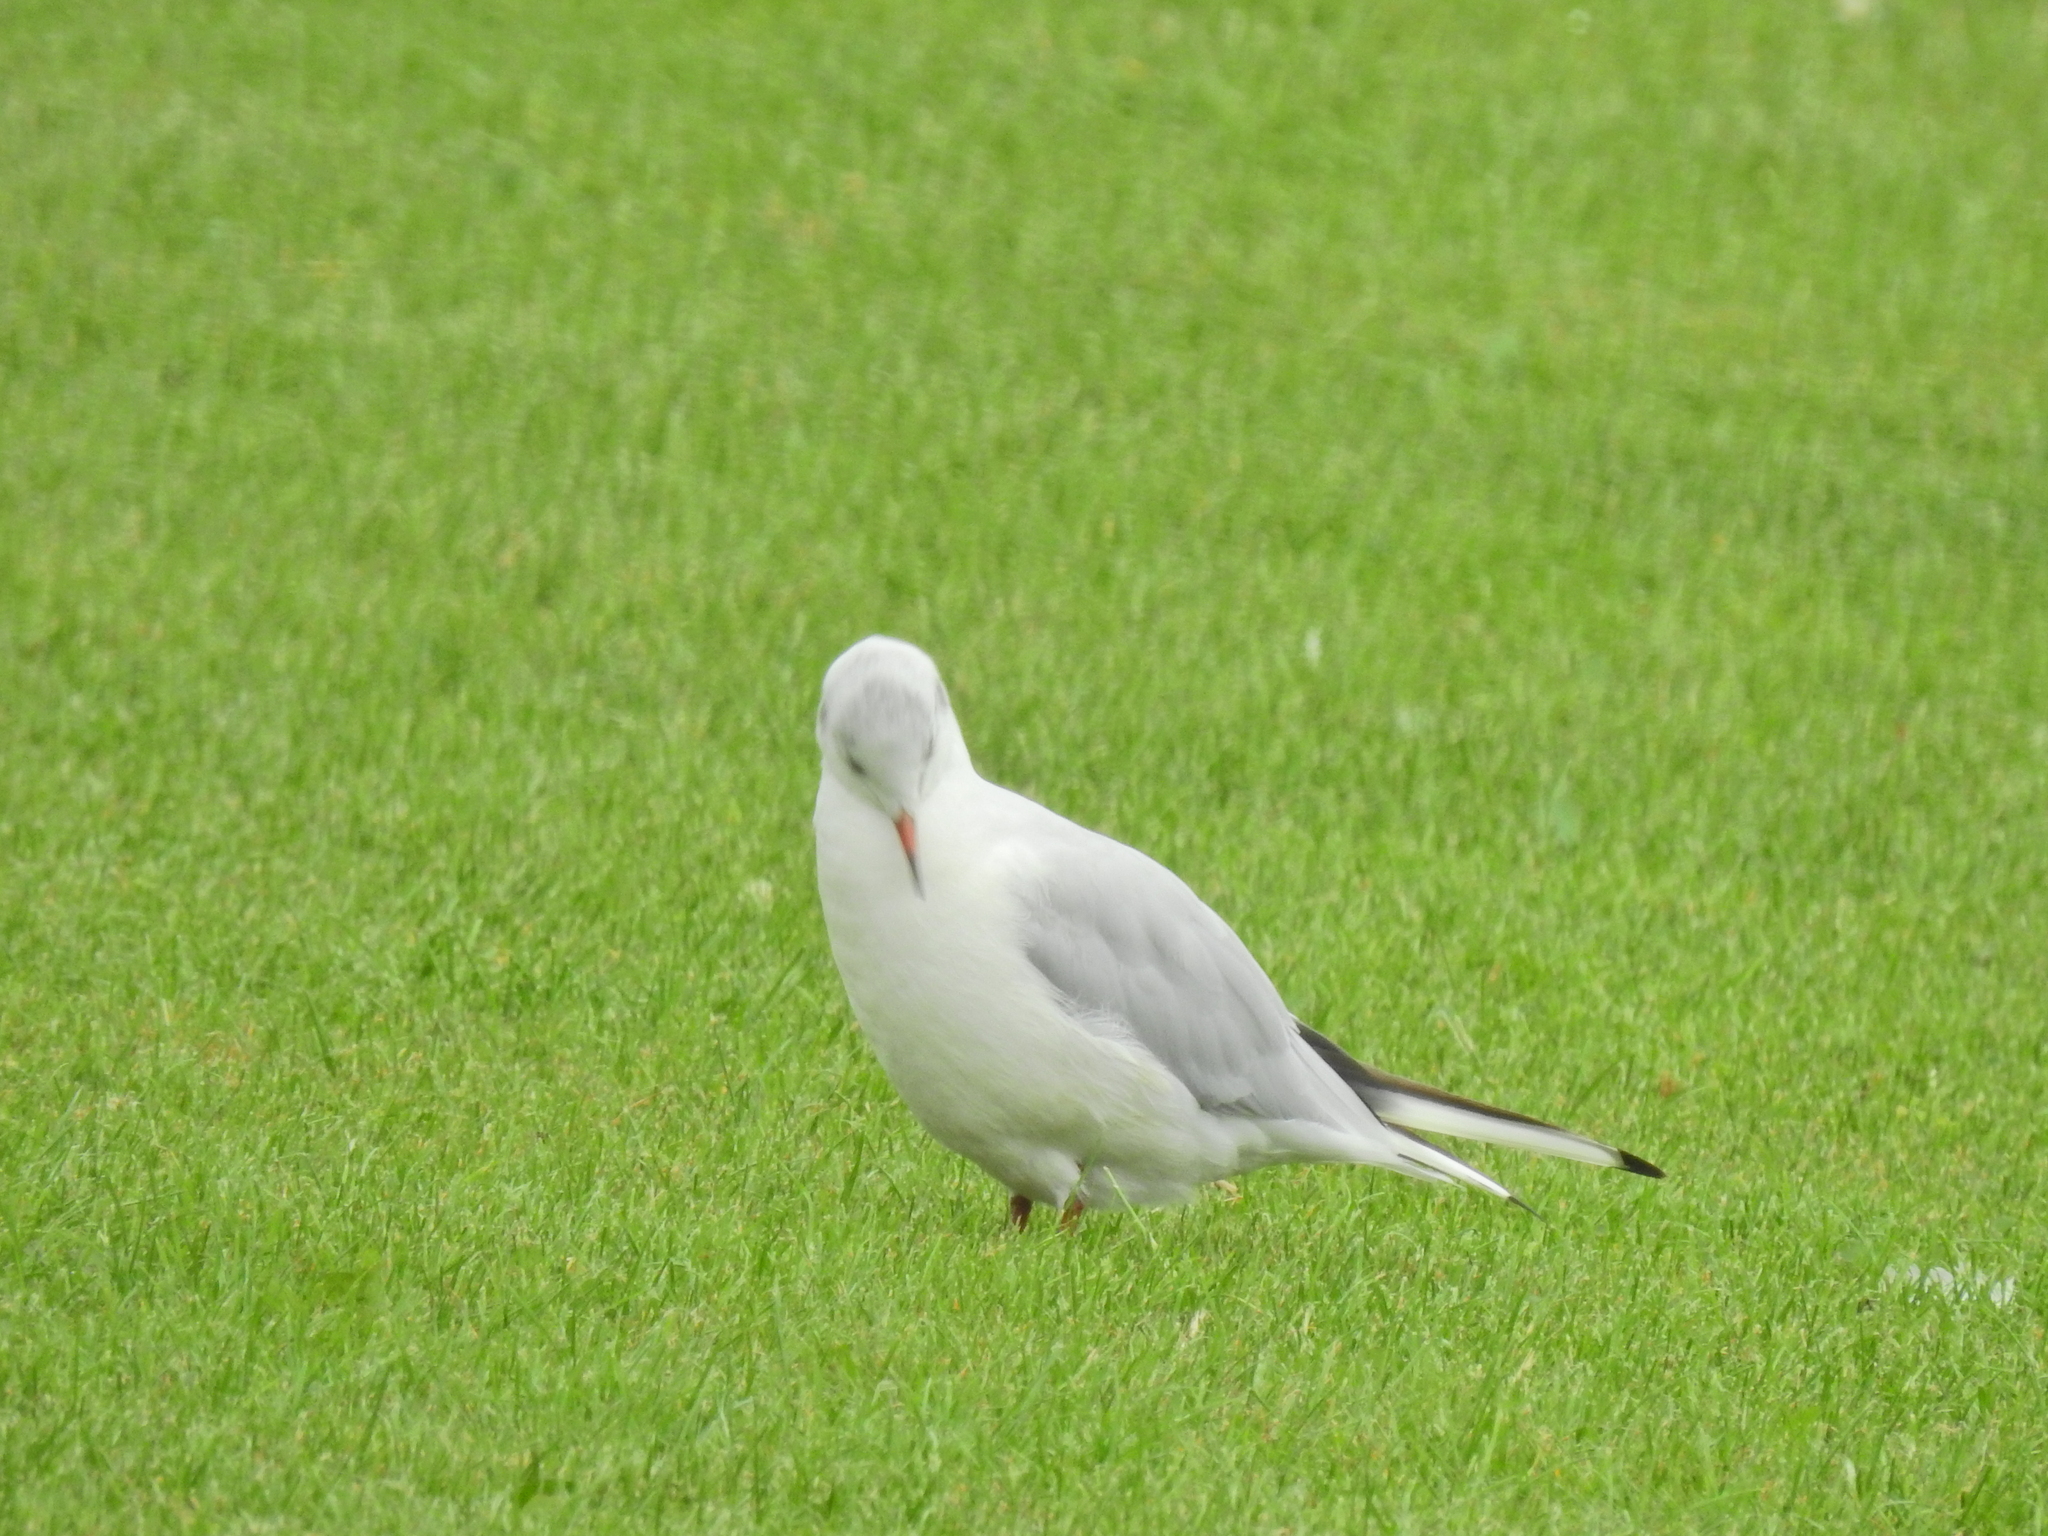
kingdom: Animalia
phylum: Chordata
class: Aves
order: Charadriiformes
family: Laridae
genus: Chroicocephalus
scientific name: Chroicocephalus ridibundus
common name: Black-headed gull
